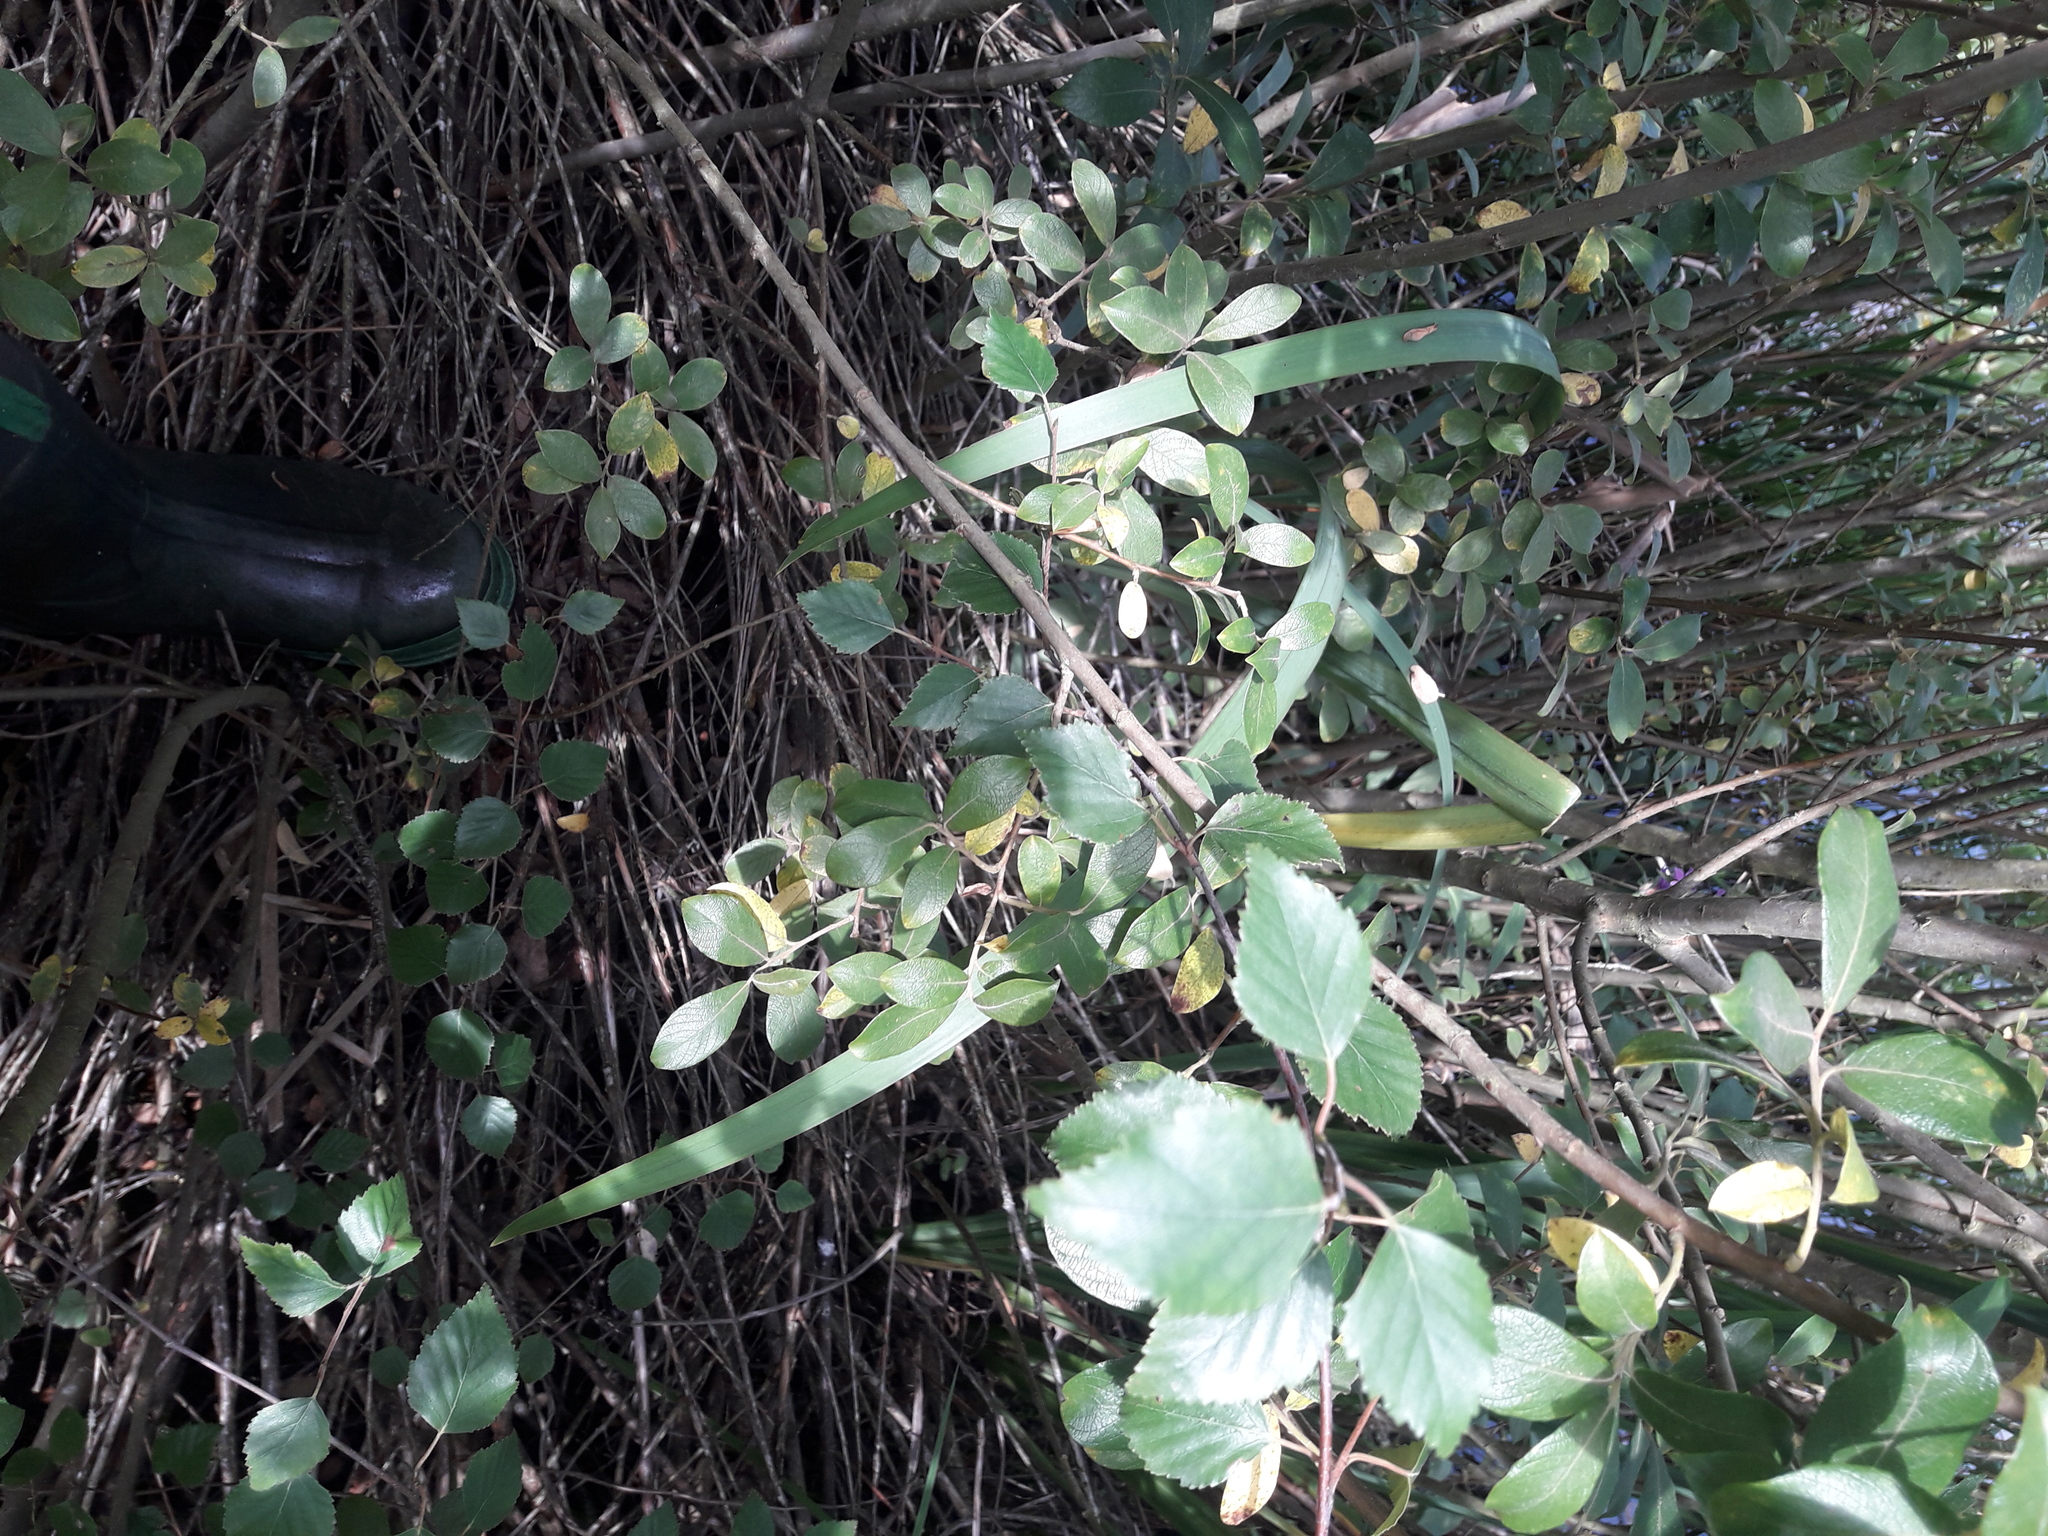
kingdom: Plantae
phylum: Tracheophyta
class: Liliopsida
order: Asparagales
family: Iridaceae
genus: Iris
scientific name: Iris pseudacorus
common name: Yellow flag
